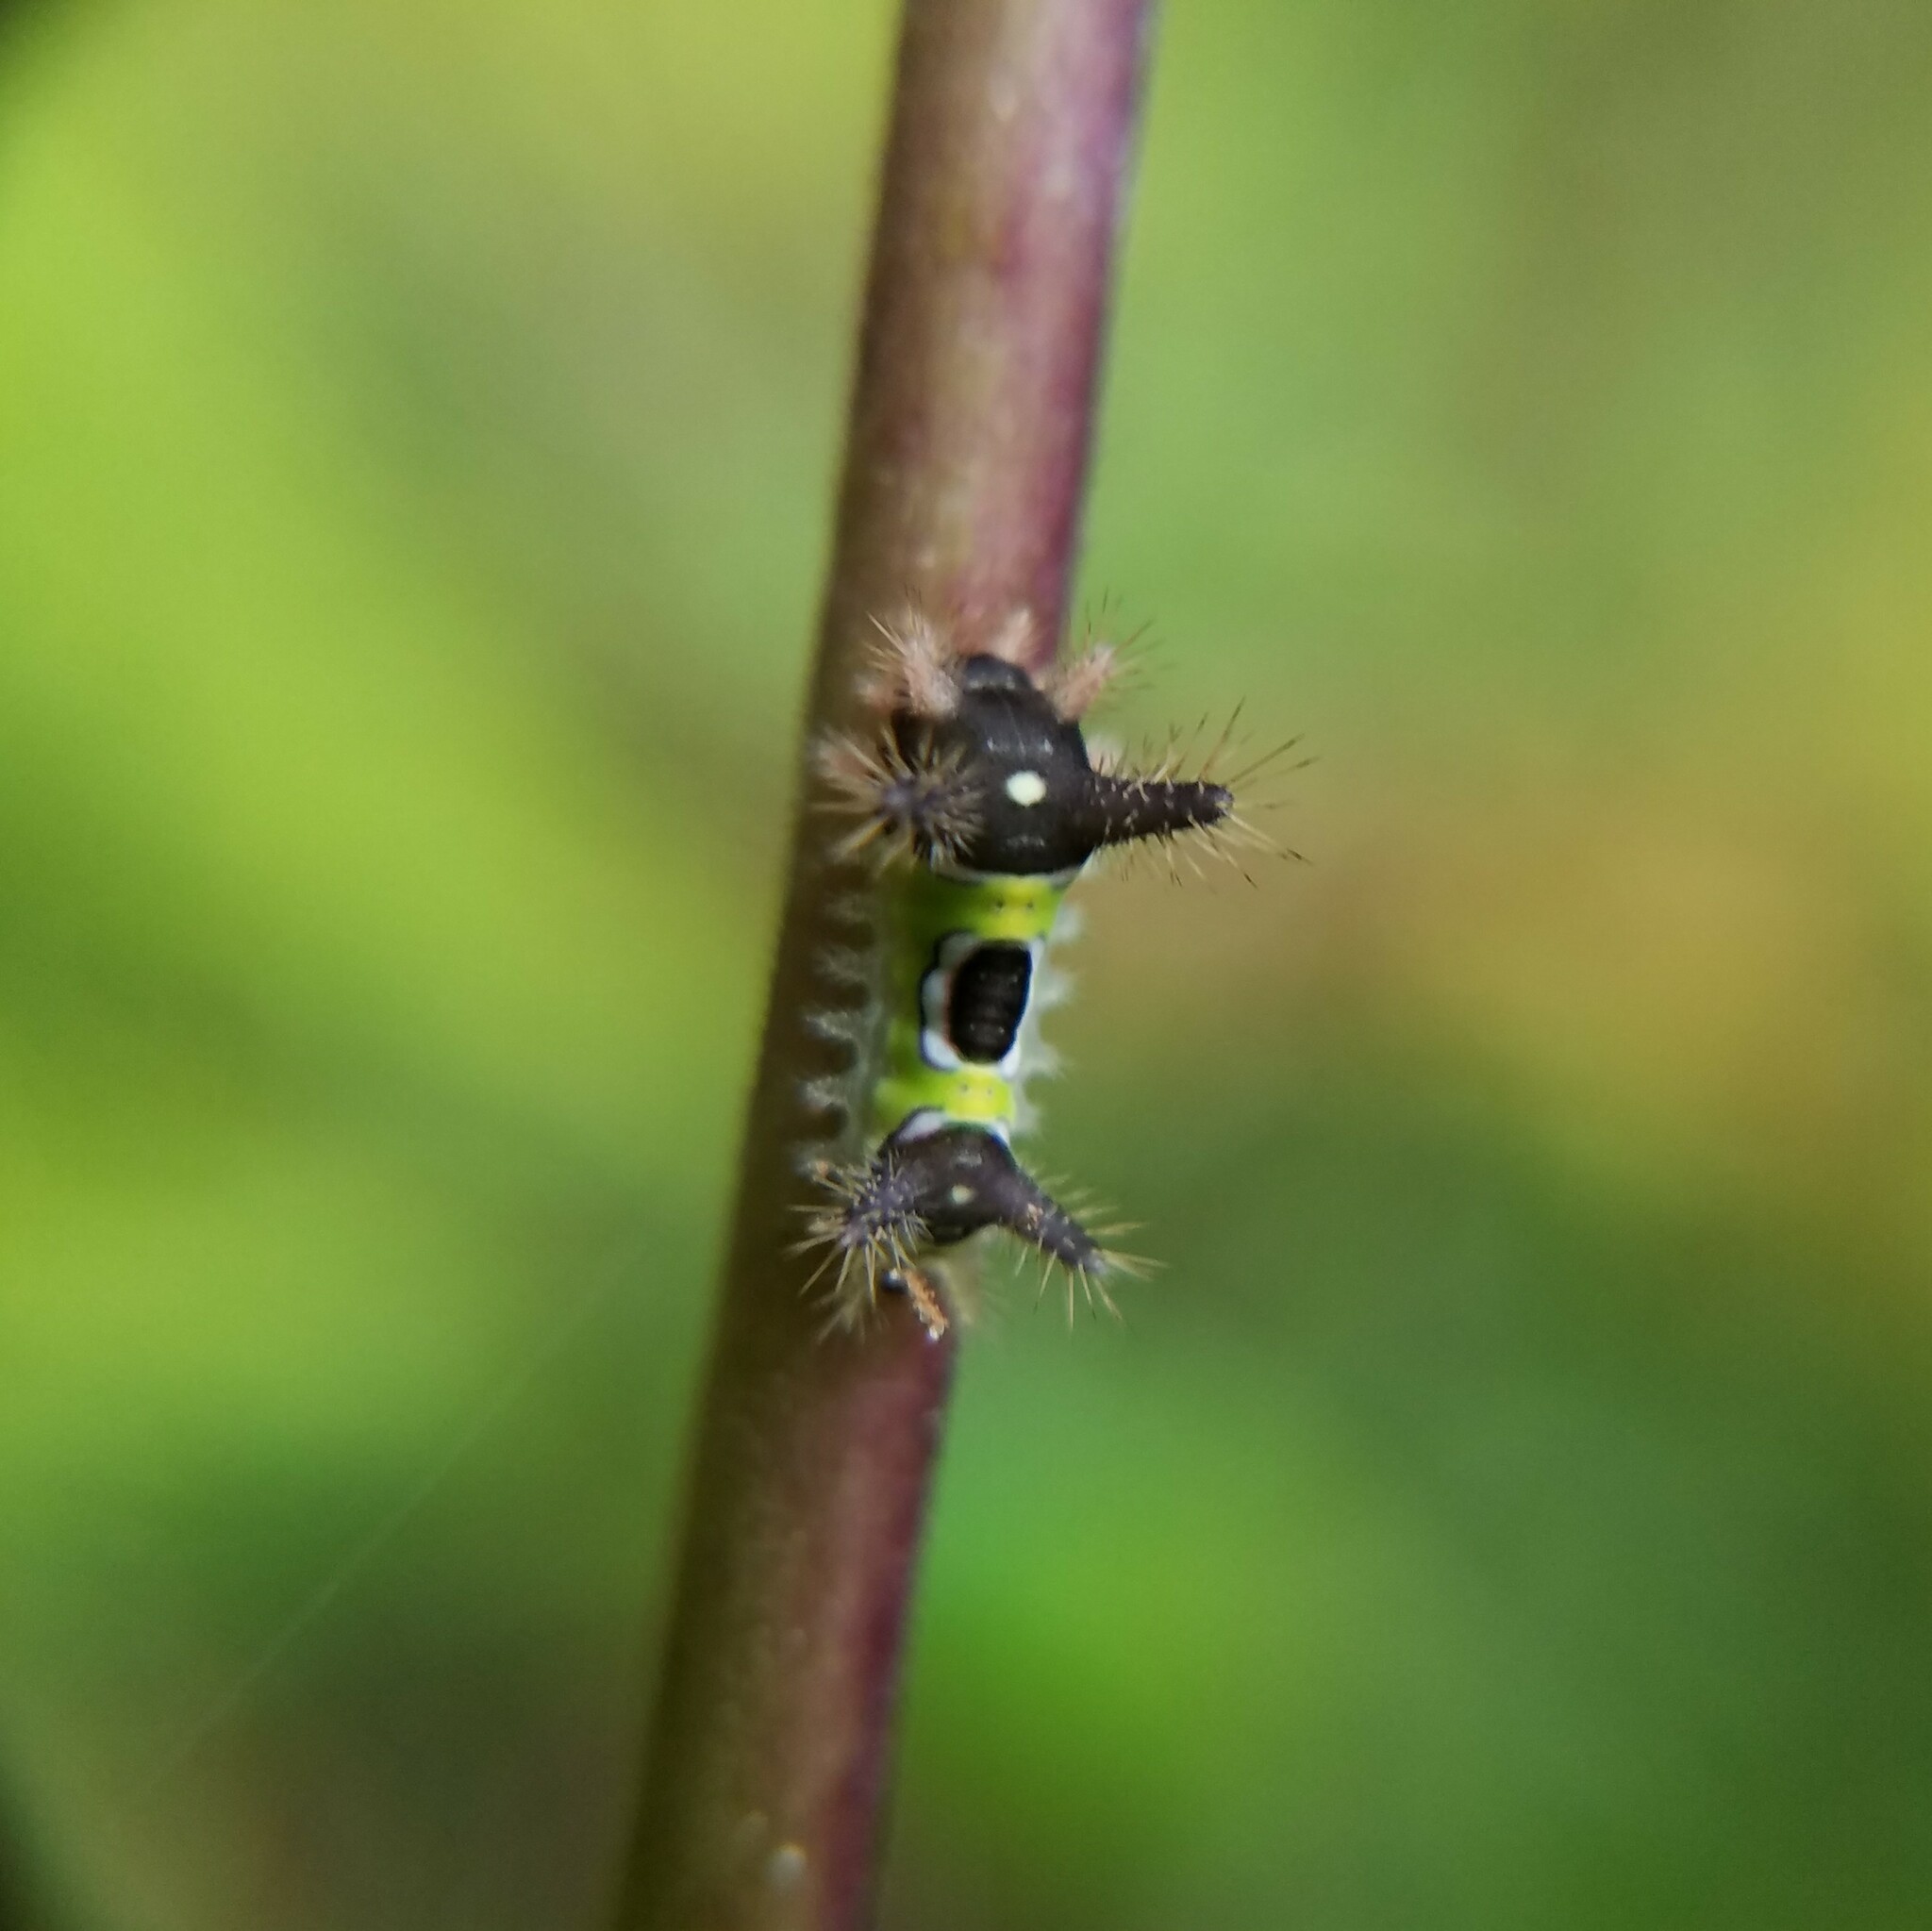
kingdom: Animalia
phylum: Arthropoda
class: Insecta
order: Lepidoptera
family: Limacodidae
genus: Acharia
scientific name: Acharia stimulea
